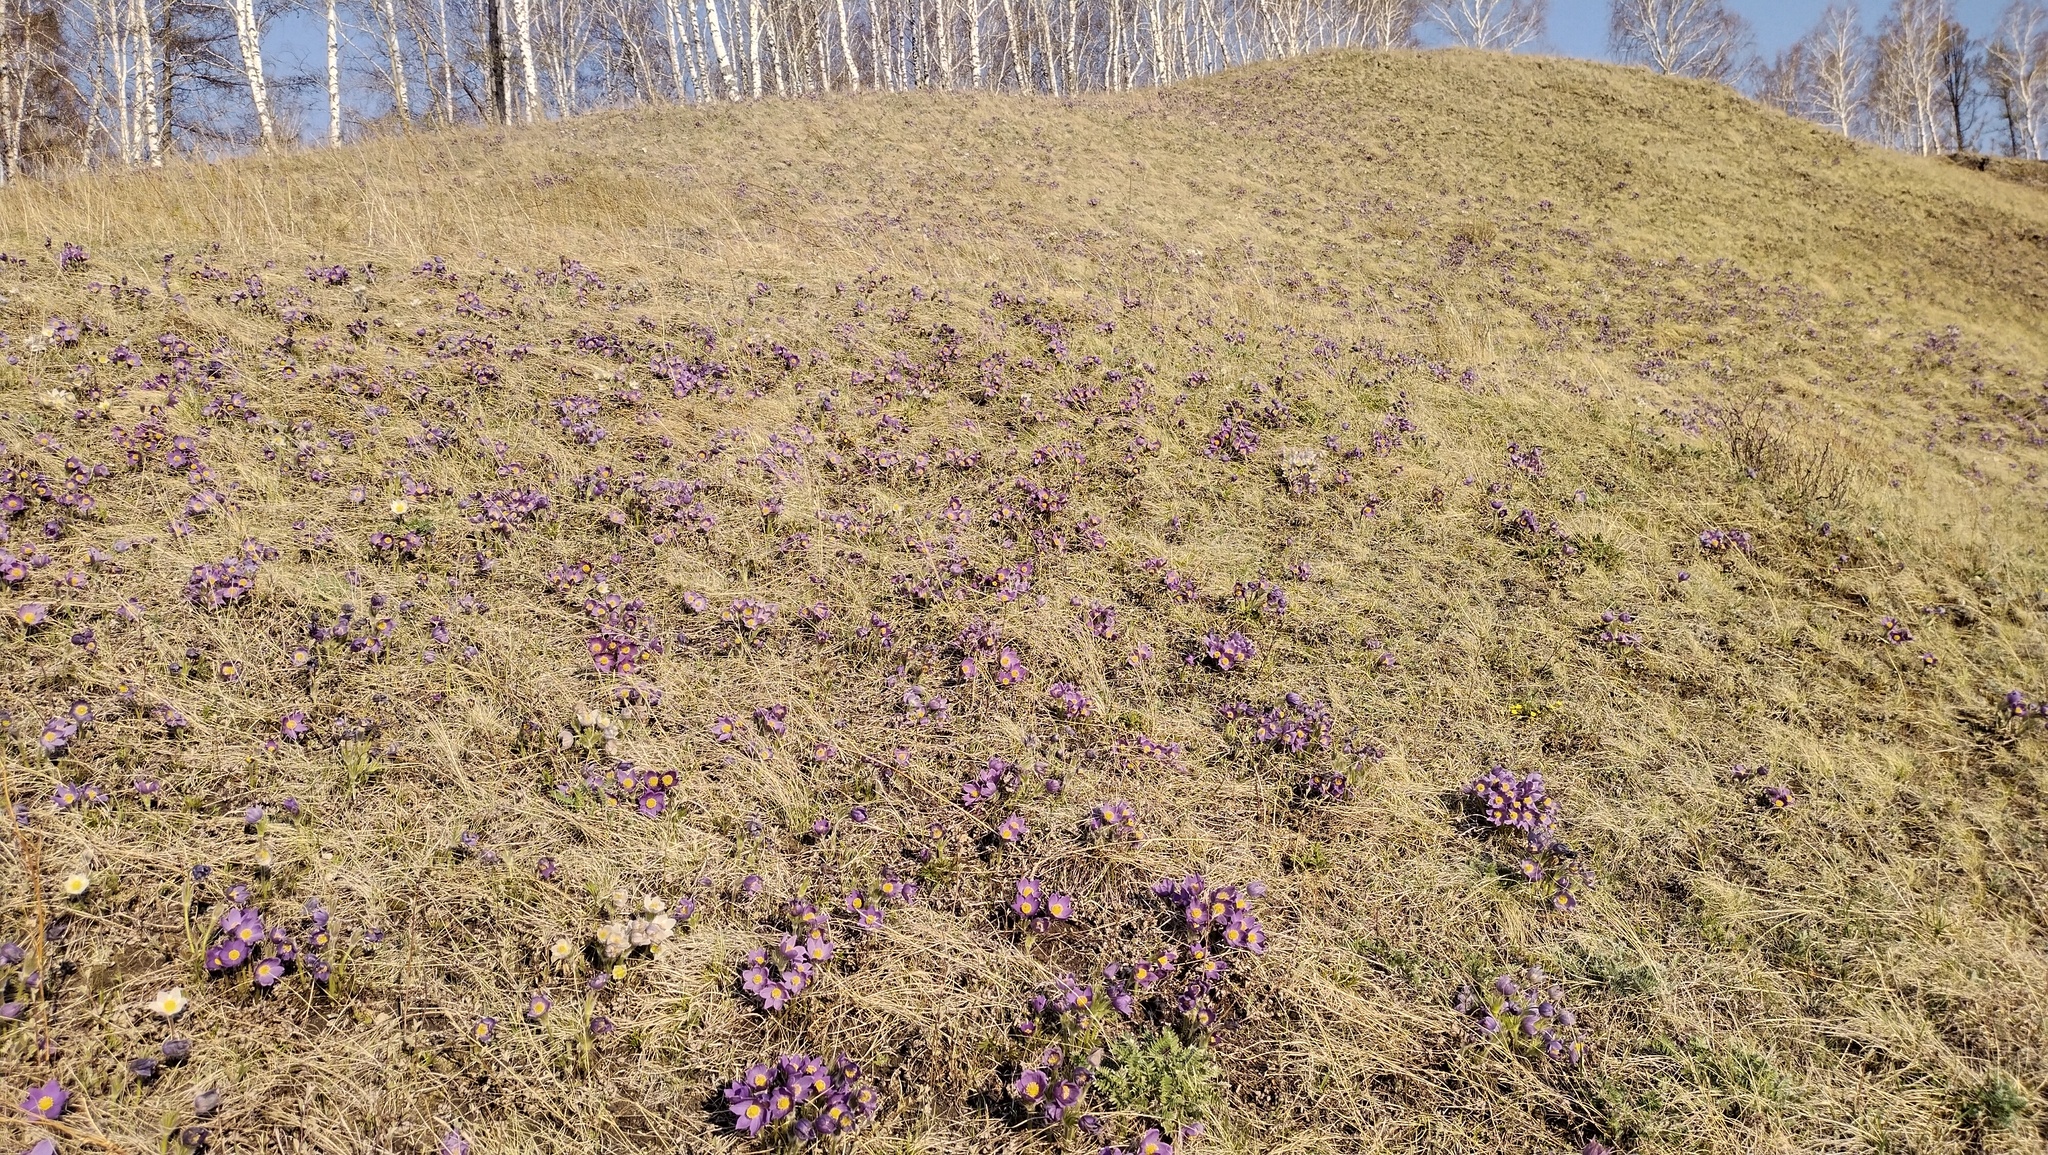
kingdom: Plantae
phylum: Tracheophyta
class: Magnoliopsida
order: Ranunculales
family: Ranunculaceae
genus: Pulsatilla
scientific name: Pulsatilla patens
